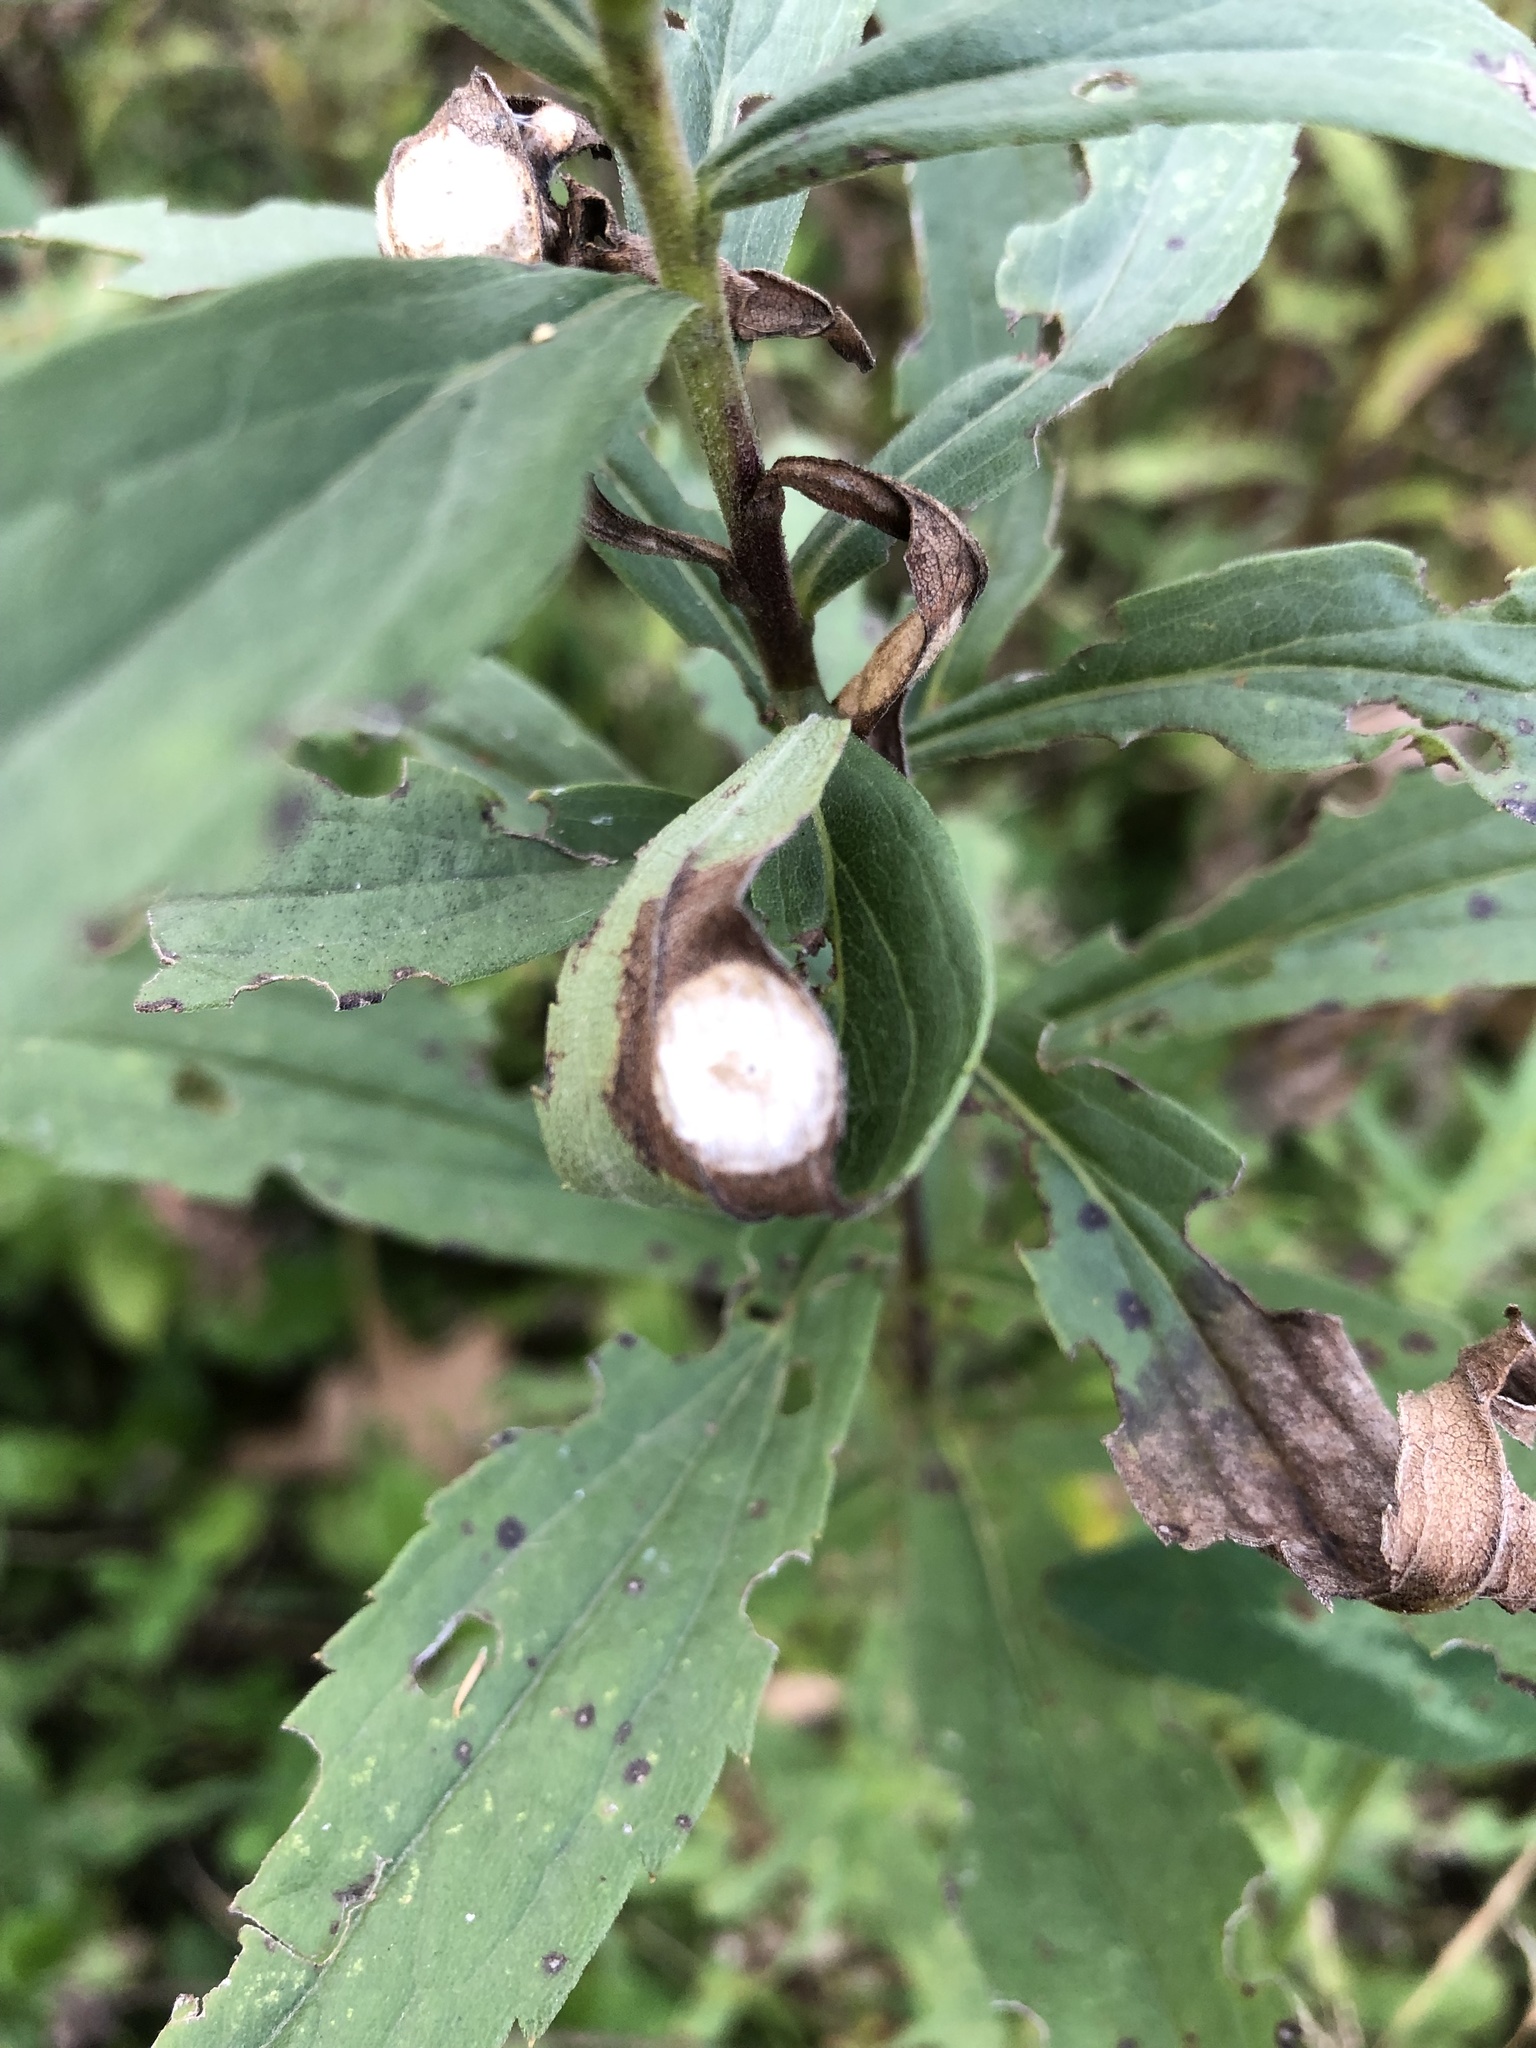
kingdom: Animalia
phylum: Arthropoda
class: Insecta
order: Diptera
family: Cecidomyiidae
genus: Asteromyia
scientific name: Asteromyia carbonifera
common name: Carbonifera goldenrod gall midge
